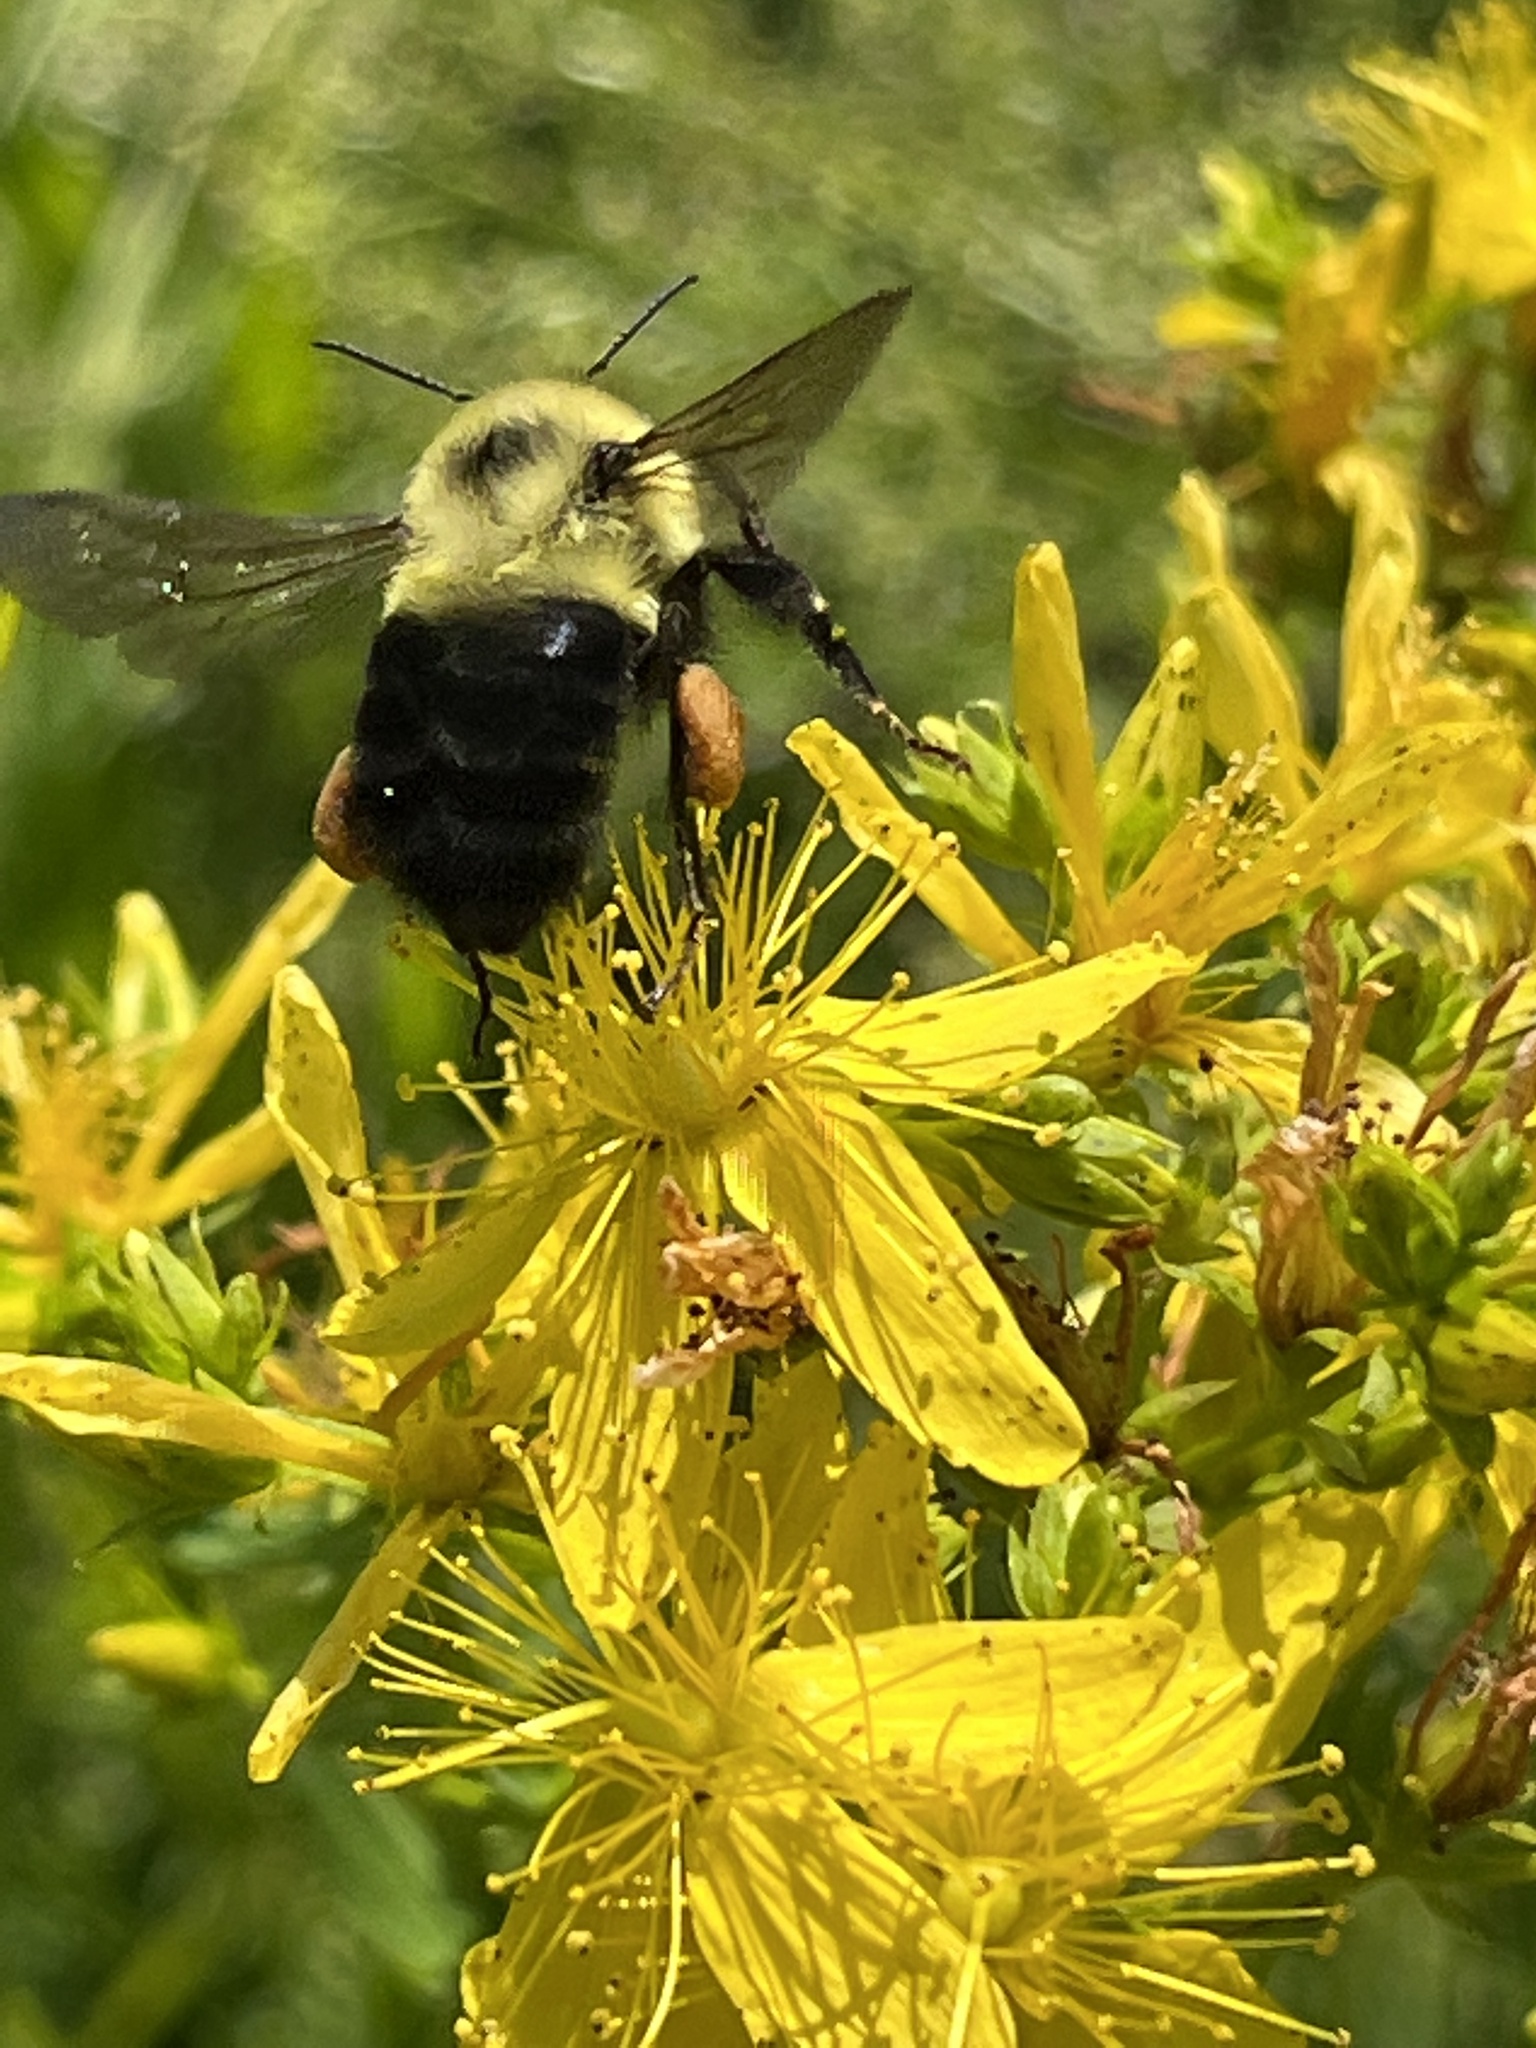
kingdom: Animalia
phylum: Arthropoda
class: Insecta
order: Hymenoptera
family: Apidae
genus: Bombus
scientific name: Bombus bimaculatus
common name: Two-spotted bumble bee
